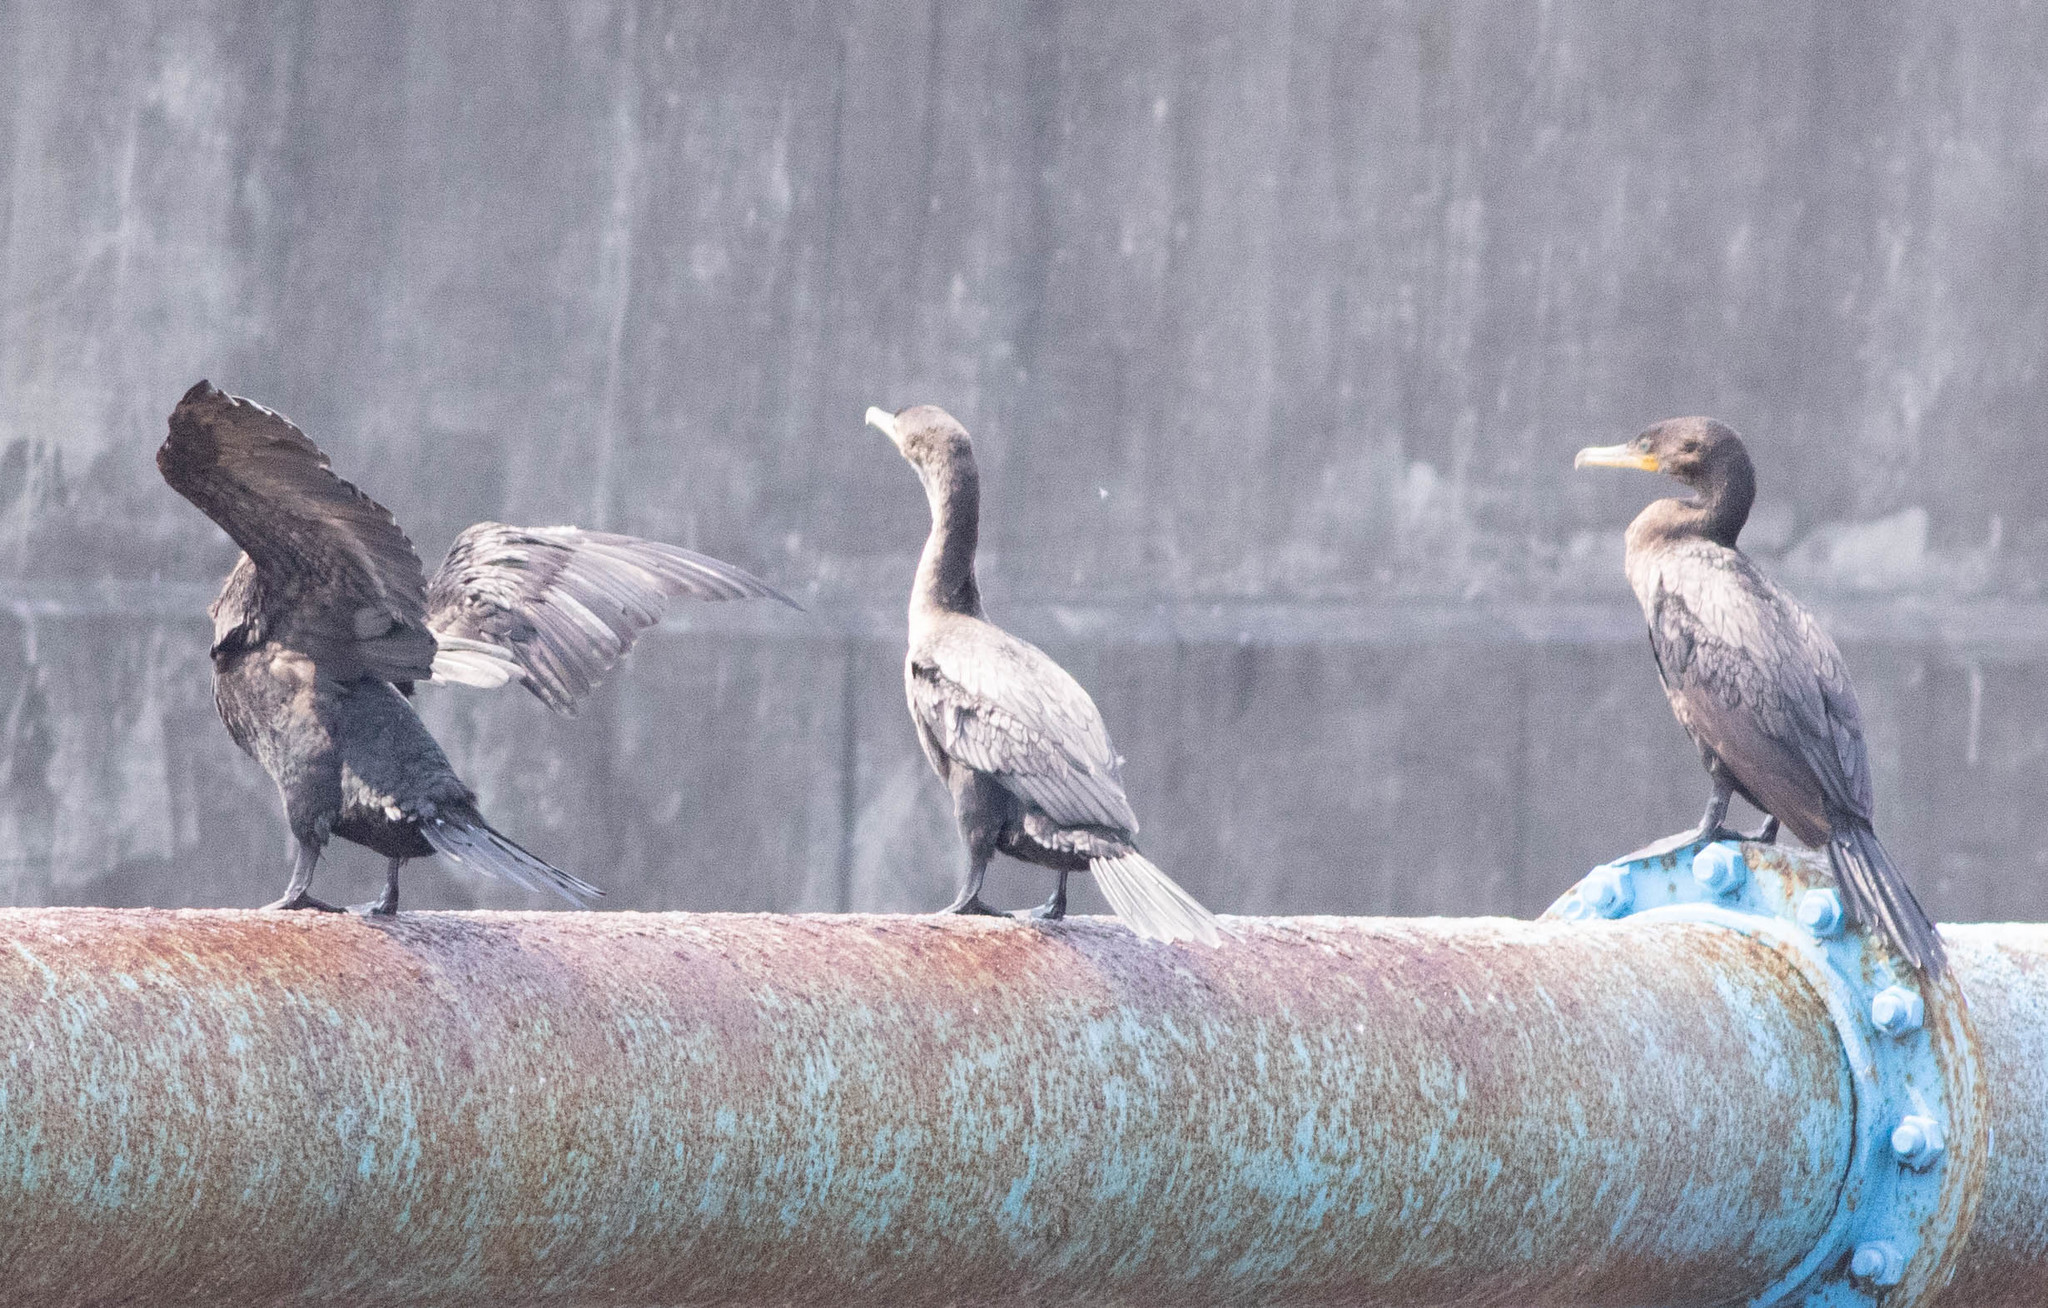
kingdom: Animalia
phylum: Chordata
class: Aves
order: Suliformes
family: Phalacrocoracidae
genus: Phalacrocorax
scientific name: Phalacrocorax brasilianus
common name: Neotropic cormorant
